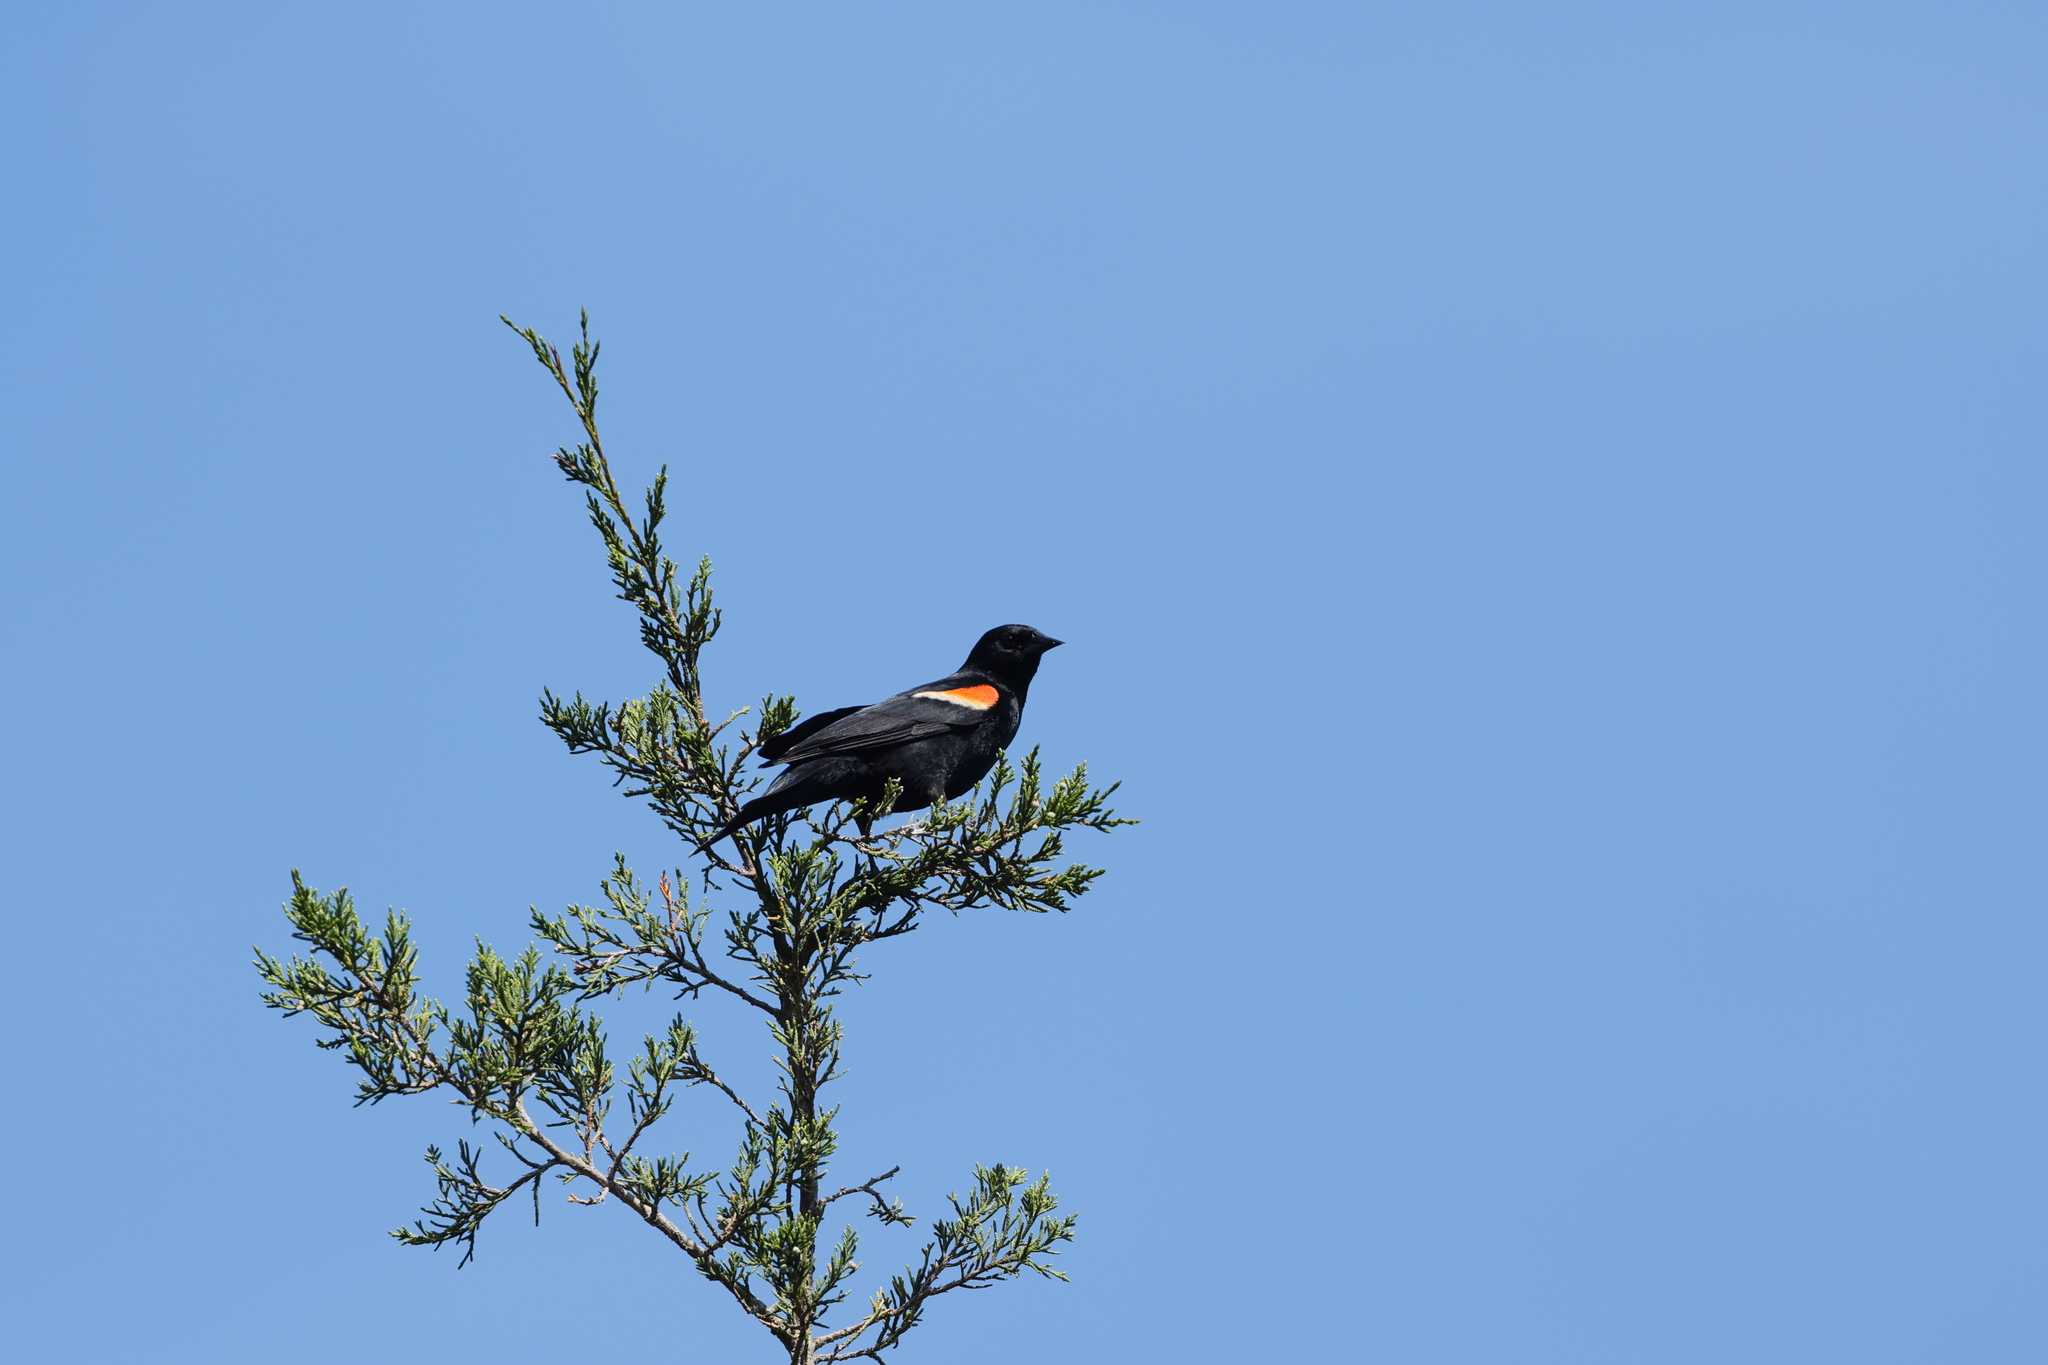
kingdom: Animalia
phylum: Chordata
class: Aves
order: Passeriformes
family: Icteridae
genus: Agelaius
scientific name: Agelaius phoeniceus
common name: Red-winged blackbird
